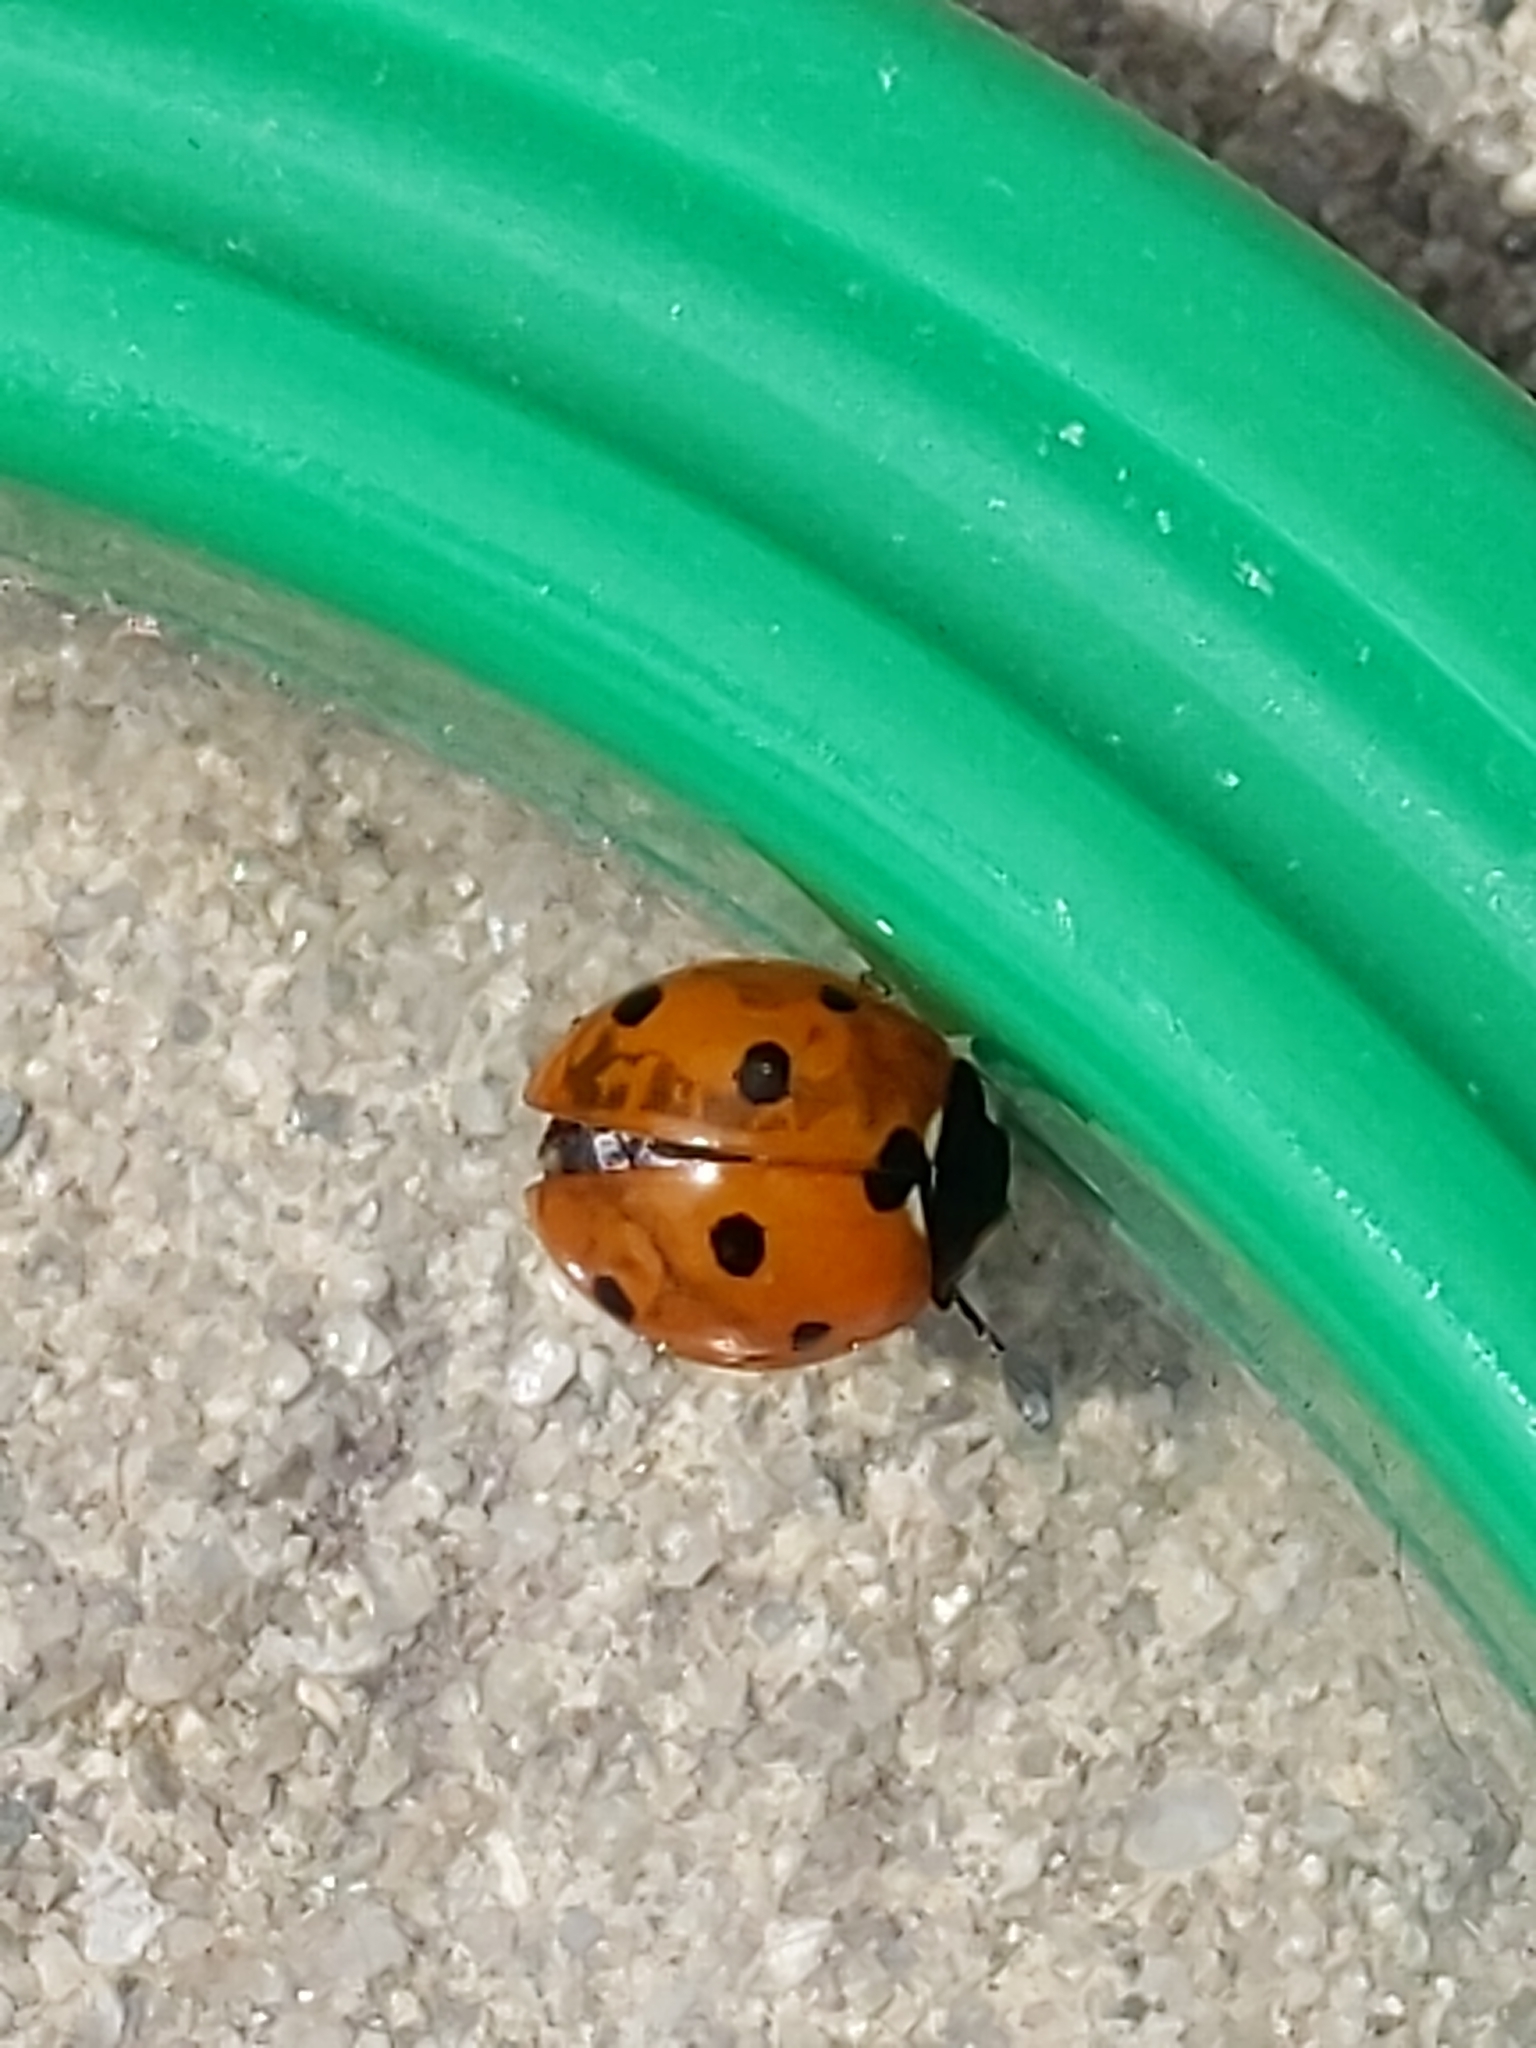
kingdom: Animalia
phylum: Arthropoda
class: Insecta
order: Coleoptera
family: Coccinellidae
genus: Coccinella
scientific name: Coccinella septempunctata
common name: Sevenspotted lady beetle
